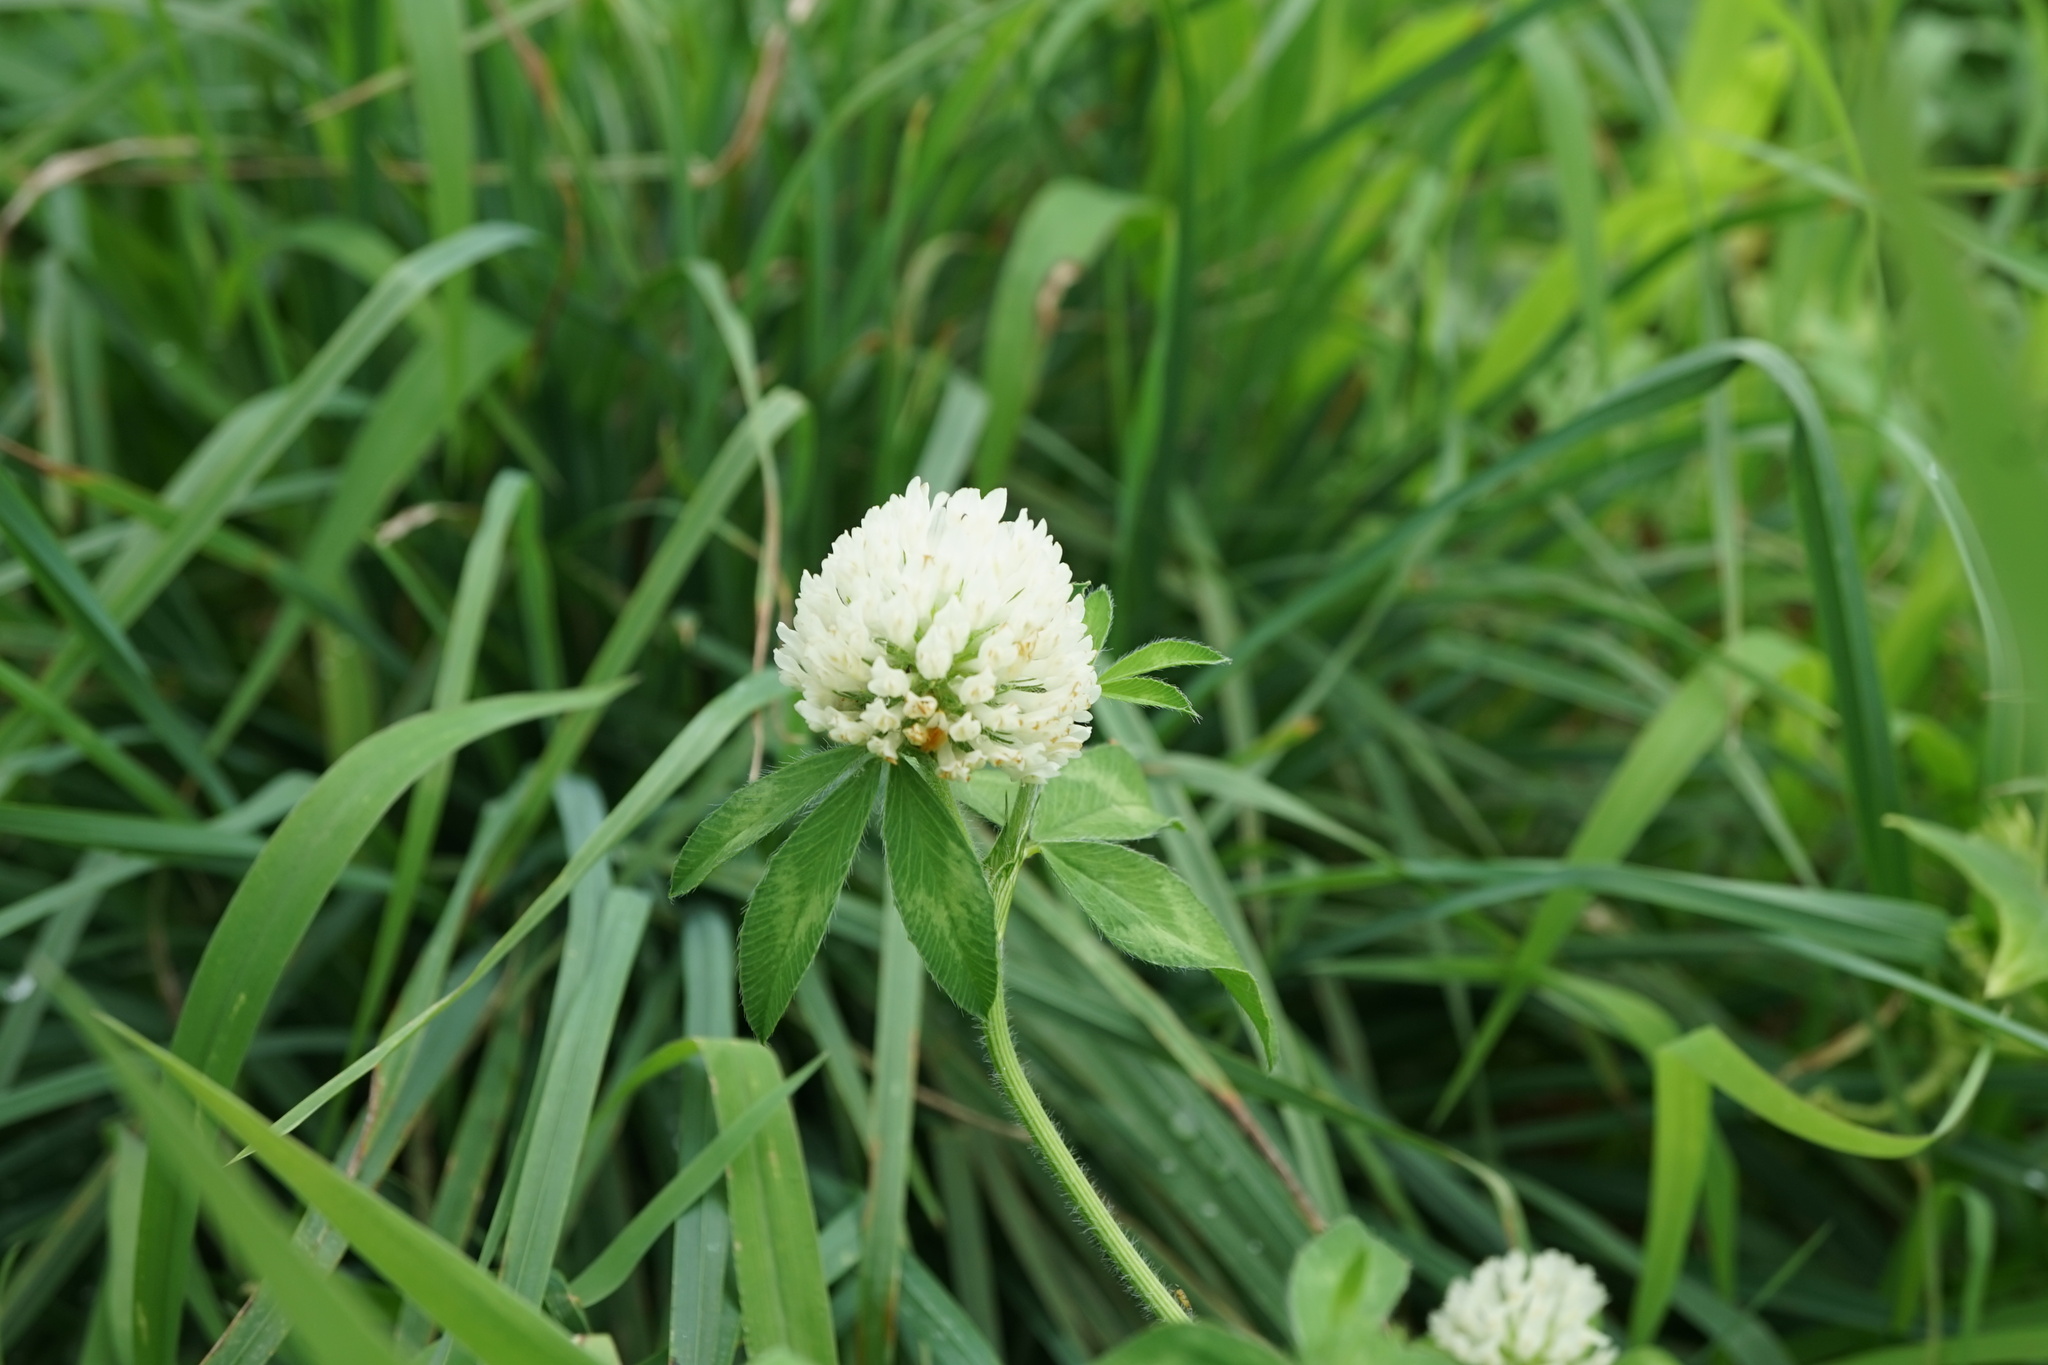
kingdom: Plantae
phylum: Tracheophyta
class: Magnoliopsida
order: Fabales
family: Fabaceae
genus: Trifolium
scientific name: Trifolium pratense
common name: Red clover
